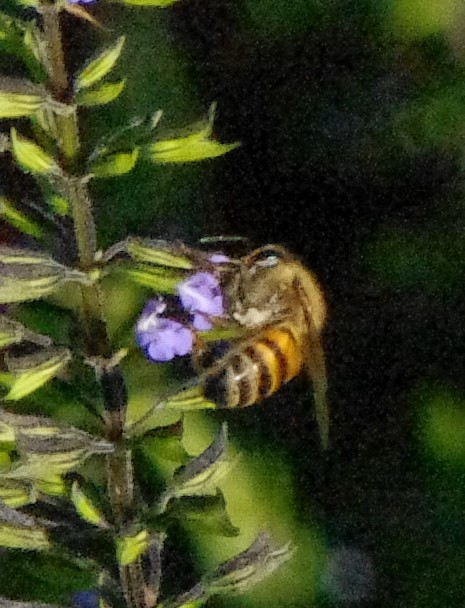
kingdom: Animalia
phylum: Arthropoda
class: Insecta
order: Hymenoptera
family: Apidae
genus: Apis
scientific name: Apis mellifera
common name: Honey bee
